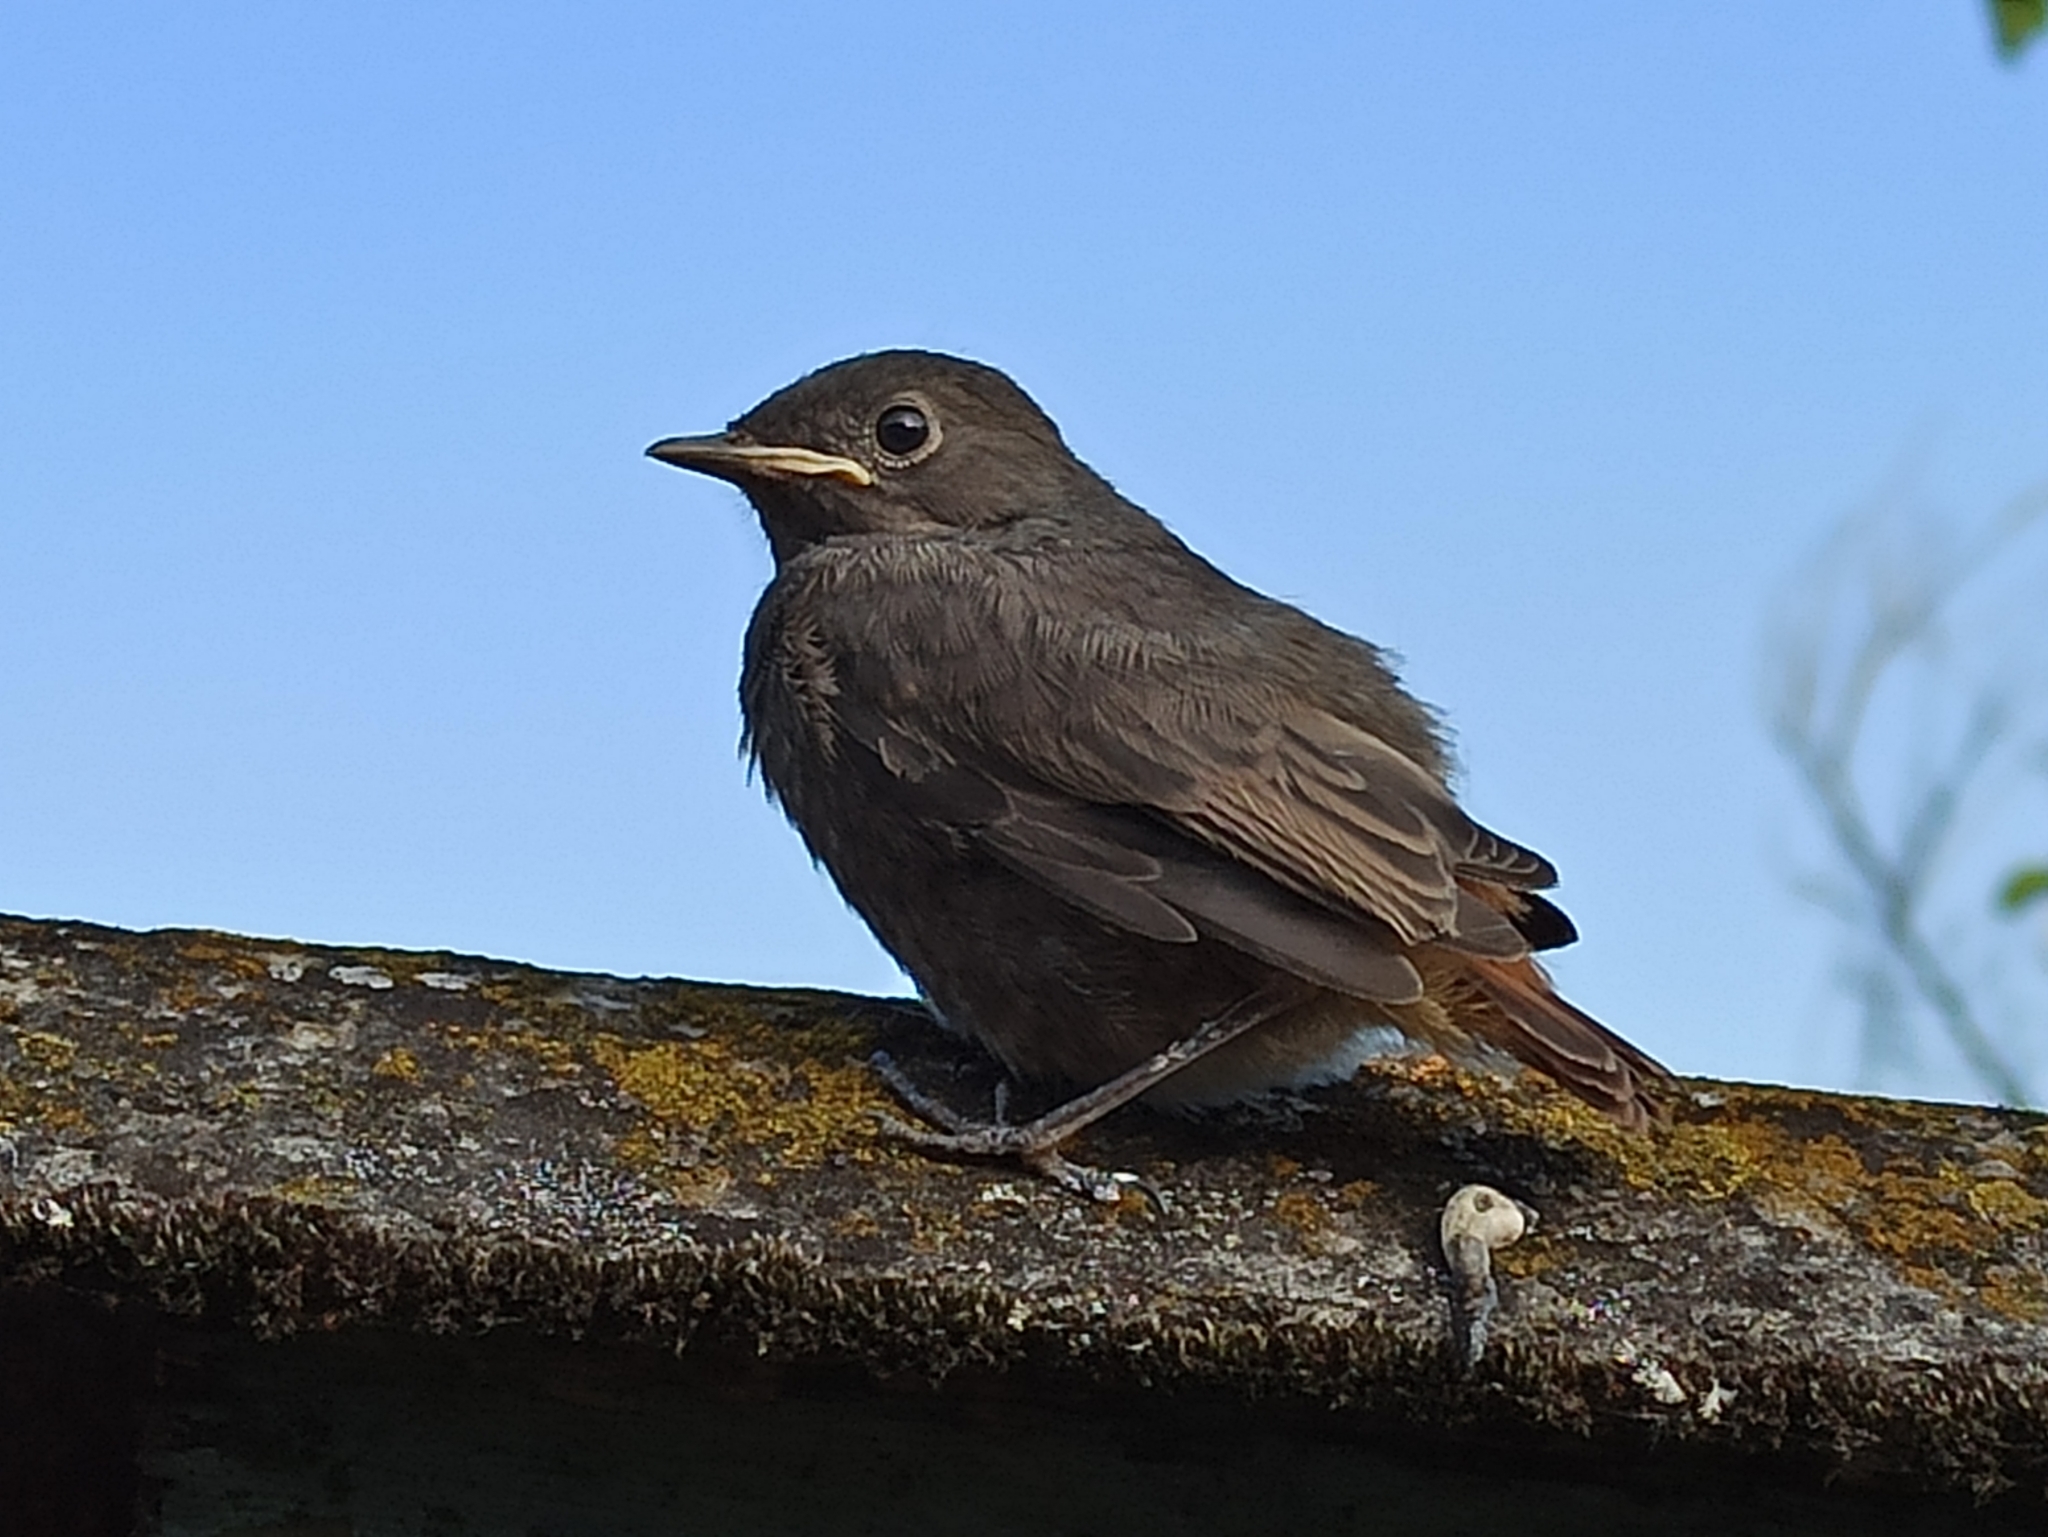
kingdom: Animalia
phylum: Chordata
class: Aves
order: Passeriformes
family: Muscicapidae
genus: Phoenicurus
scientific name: Phoenicurus ochruros
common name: Black redstart
